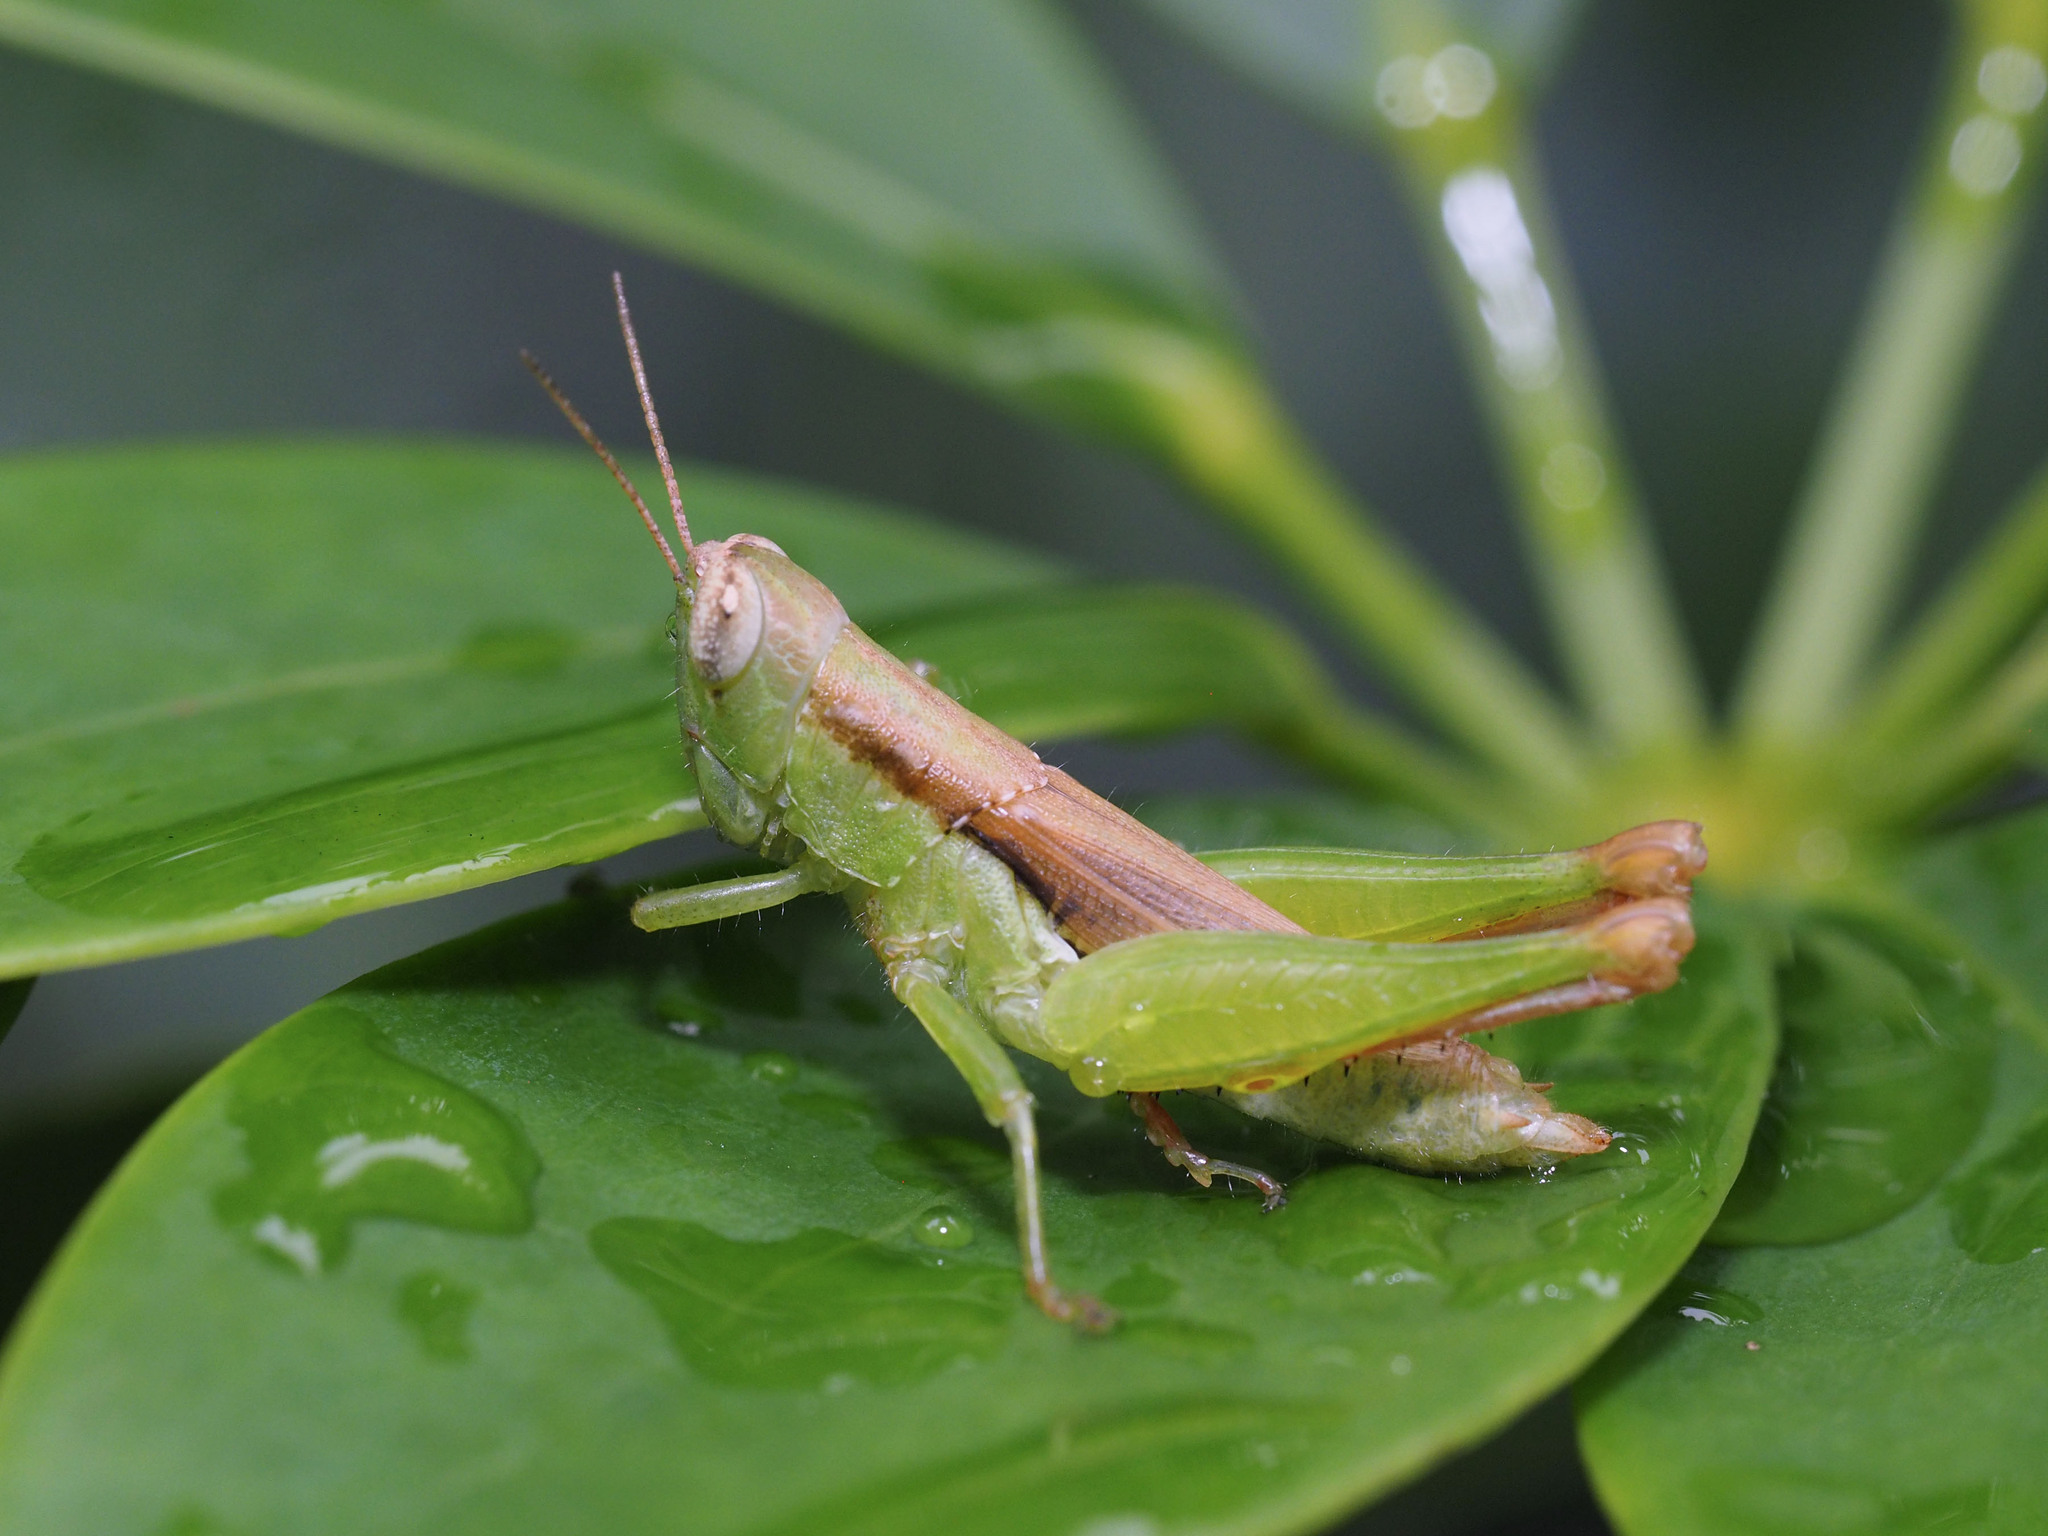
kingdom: Animalia
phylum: Arthropoda
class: Insecta
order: Orthoptera
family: Acrididae
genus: Pseudoxya
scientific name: Pseudoxya diminuta
